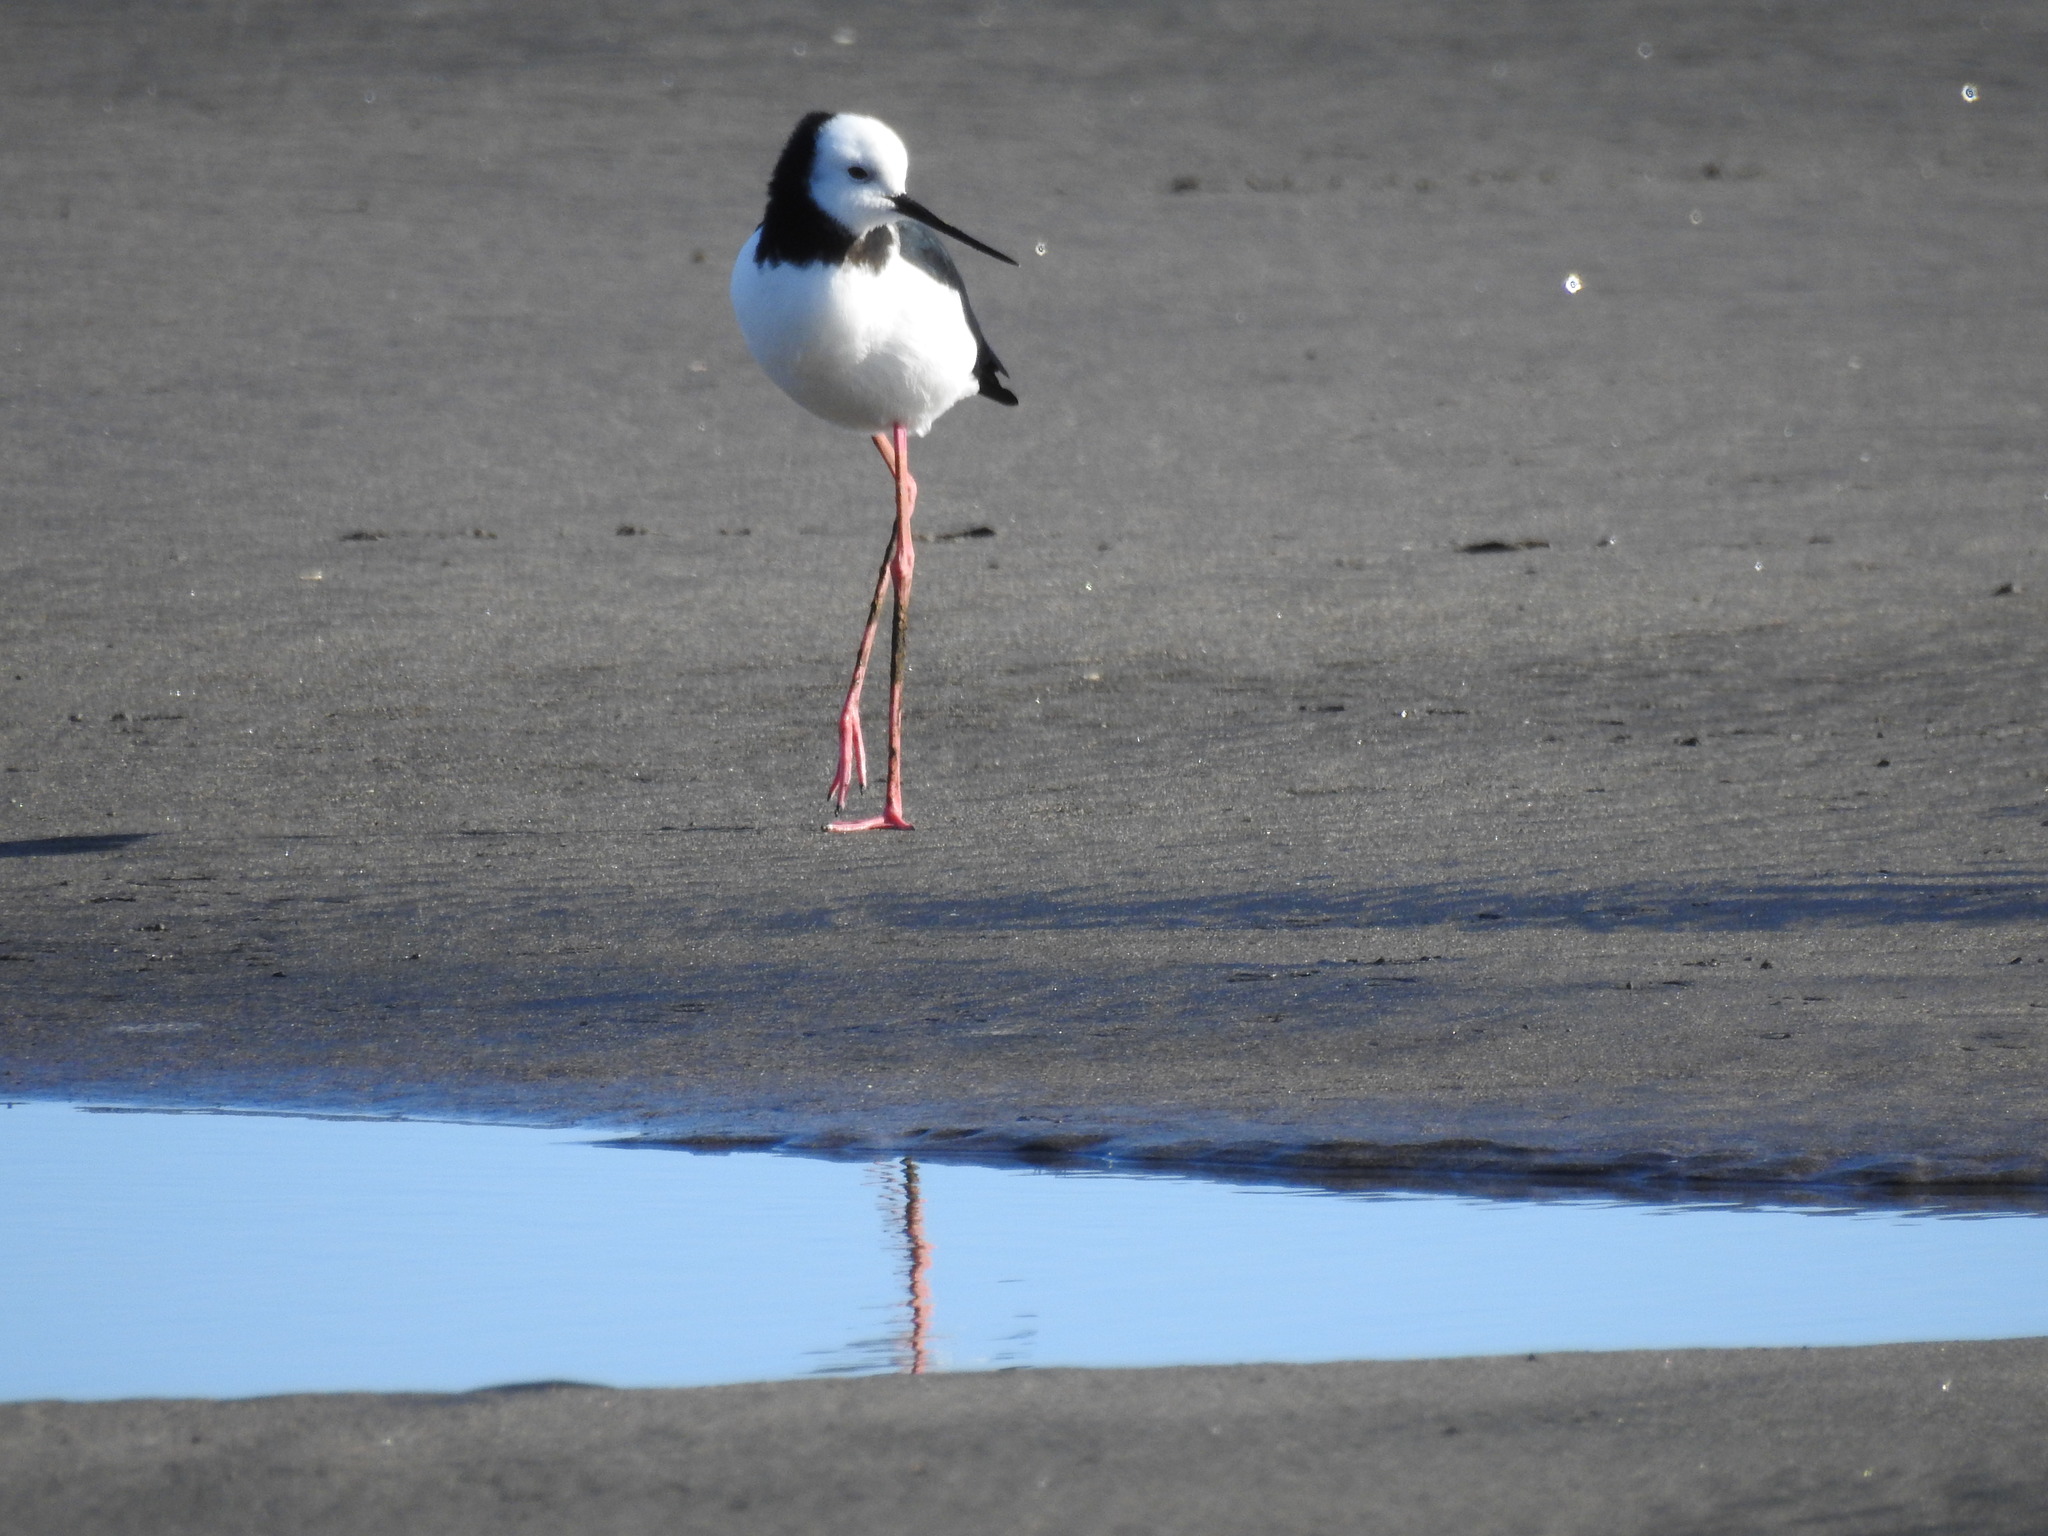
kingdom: Animalia
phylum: Chordata
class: Aves
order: Charadriiformes
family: Recurvirostridae
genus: Himantopus
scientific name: Himantopus leucocephalus
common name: White-headed stilt
